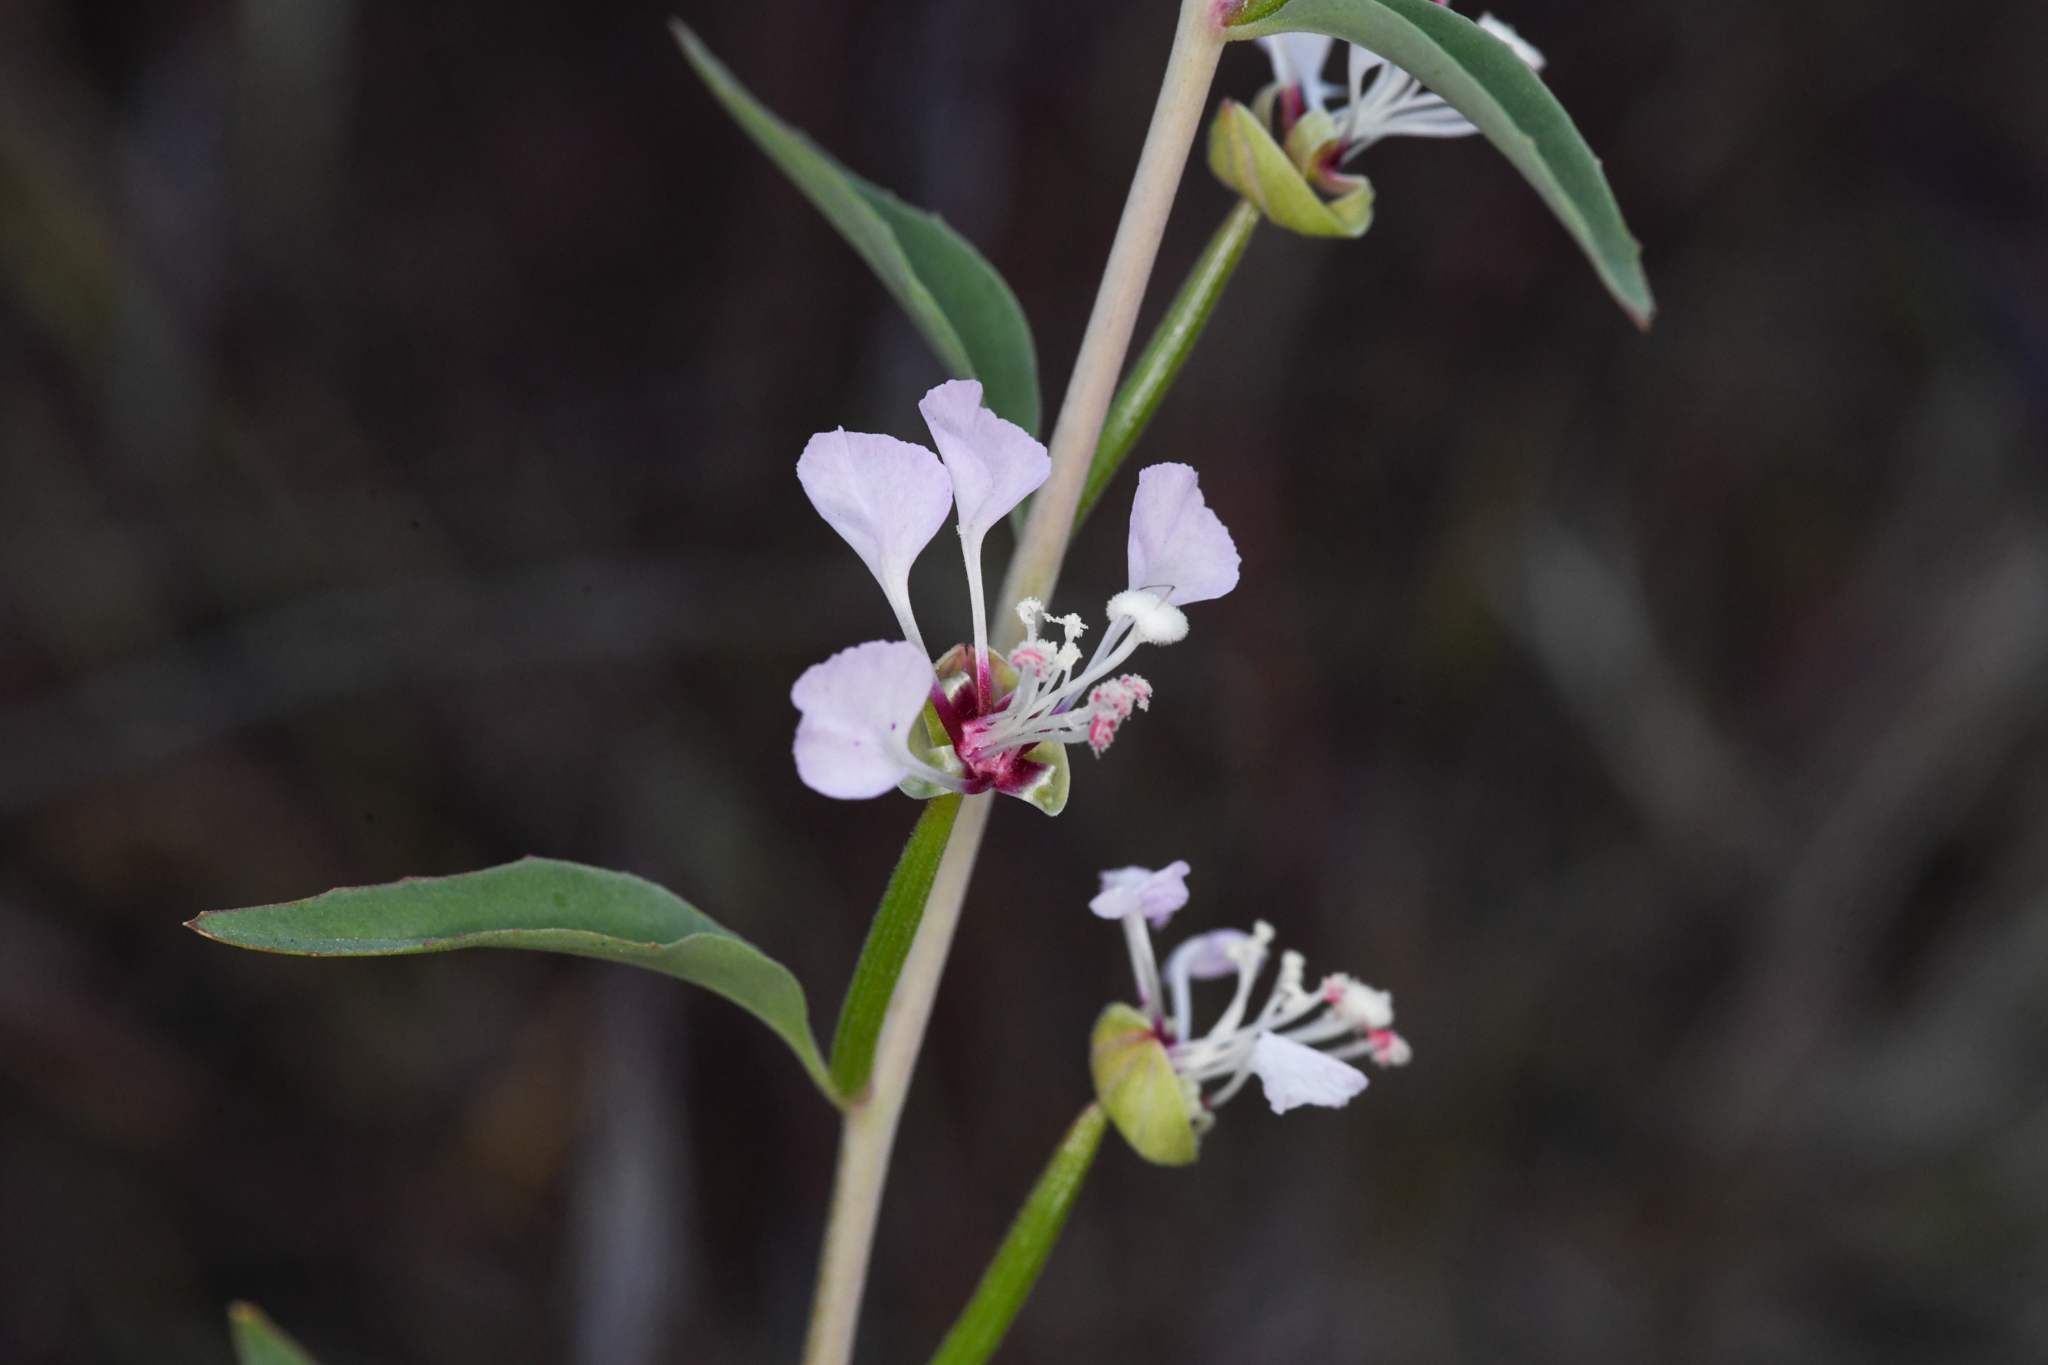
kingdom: Plantae
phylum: Tracheophyta
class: Magnoliopsida
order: Myrtales
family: Onagraceae
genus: Clarkia
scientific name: Clarkia exilis
